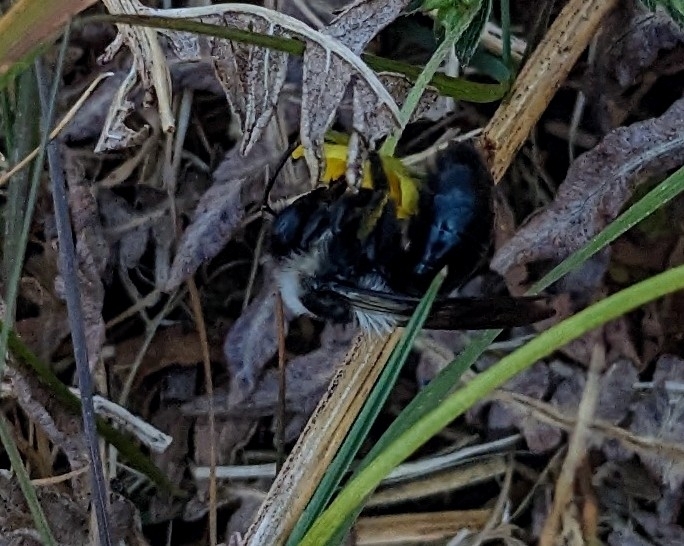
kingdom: Animalia
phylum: Arthropoda
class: Insecta
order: Hymenoptera
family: Andrenidae
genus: Andrena
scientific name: Andrena cineraria
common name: Ashy mining bee
